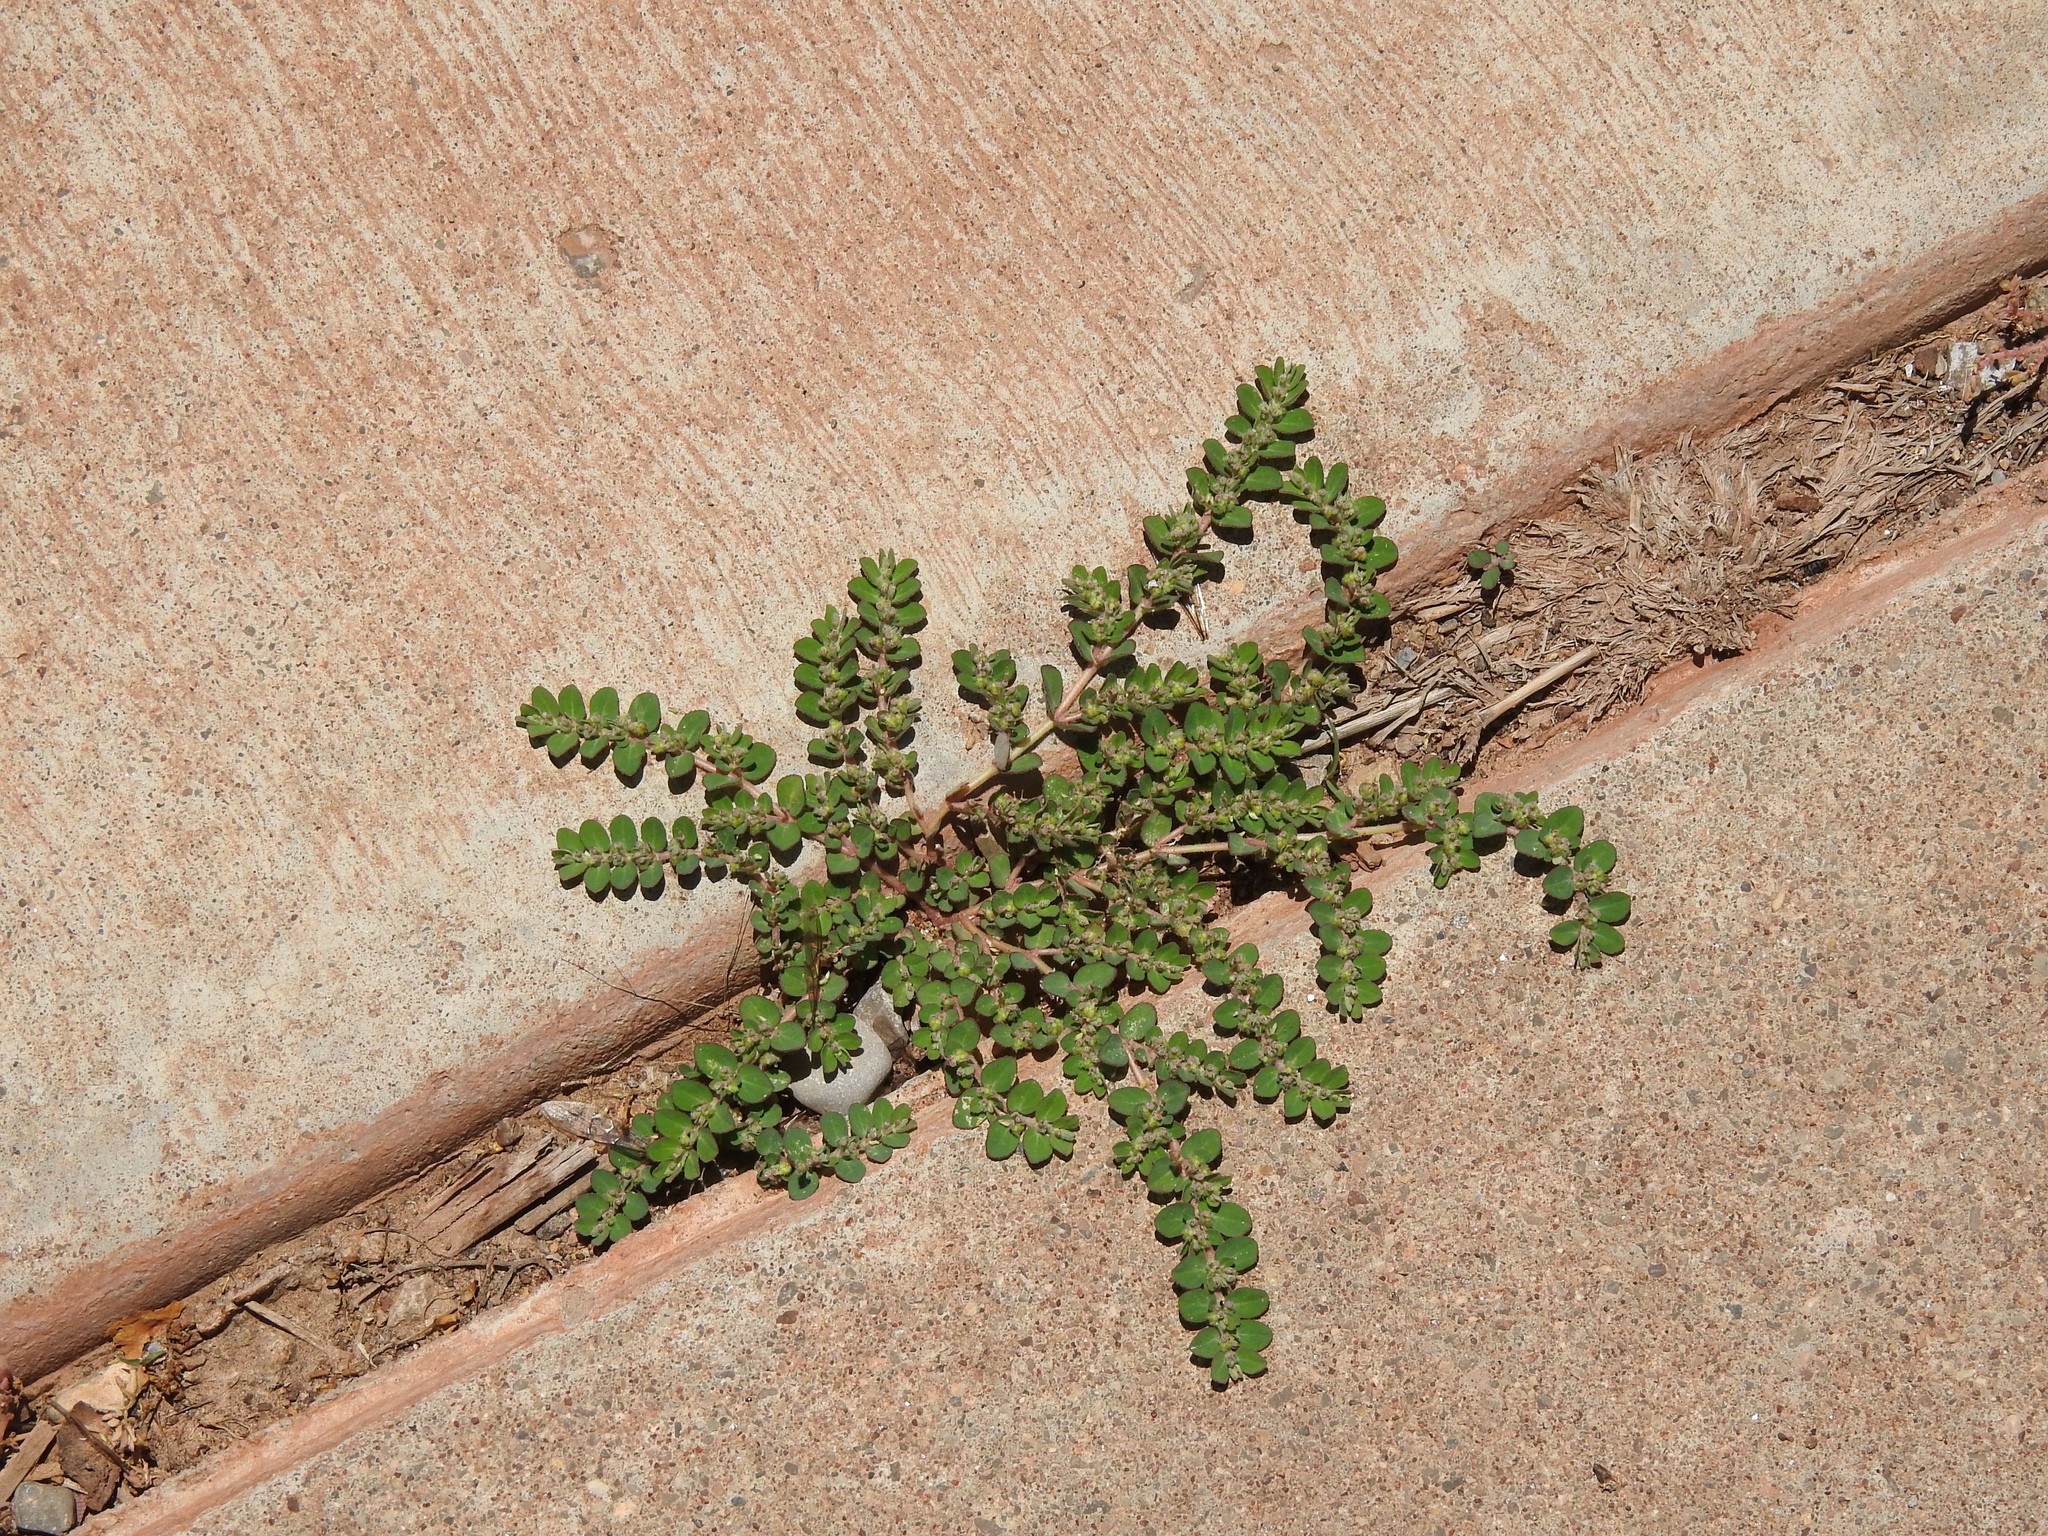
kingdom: Plantae
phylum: Tracheophyta
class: Magnoliopsida
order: Malpighiales
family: Euphorbiaceae
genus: Euphorbia
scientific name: Euphorbia prostrata
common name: Prostrate sandmat
